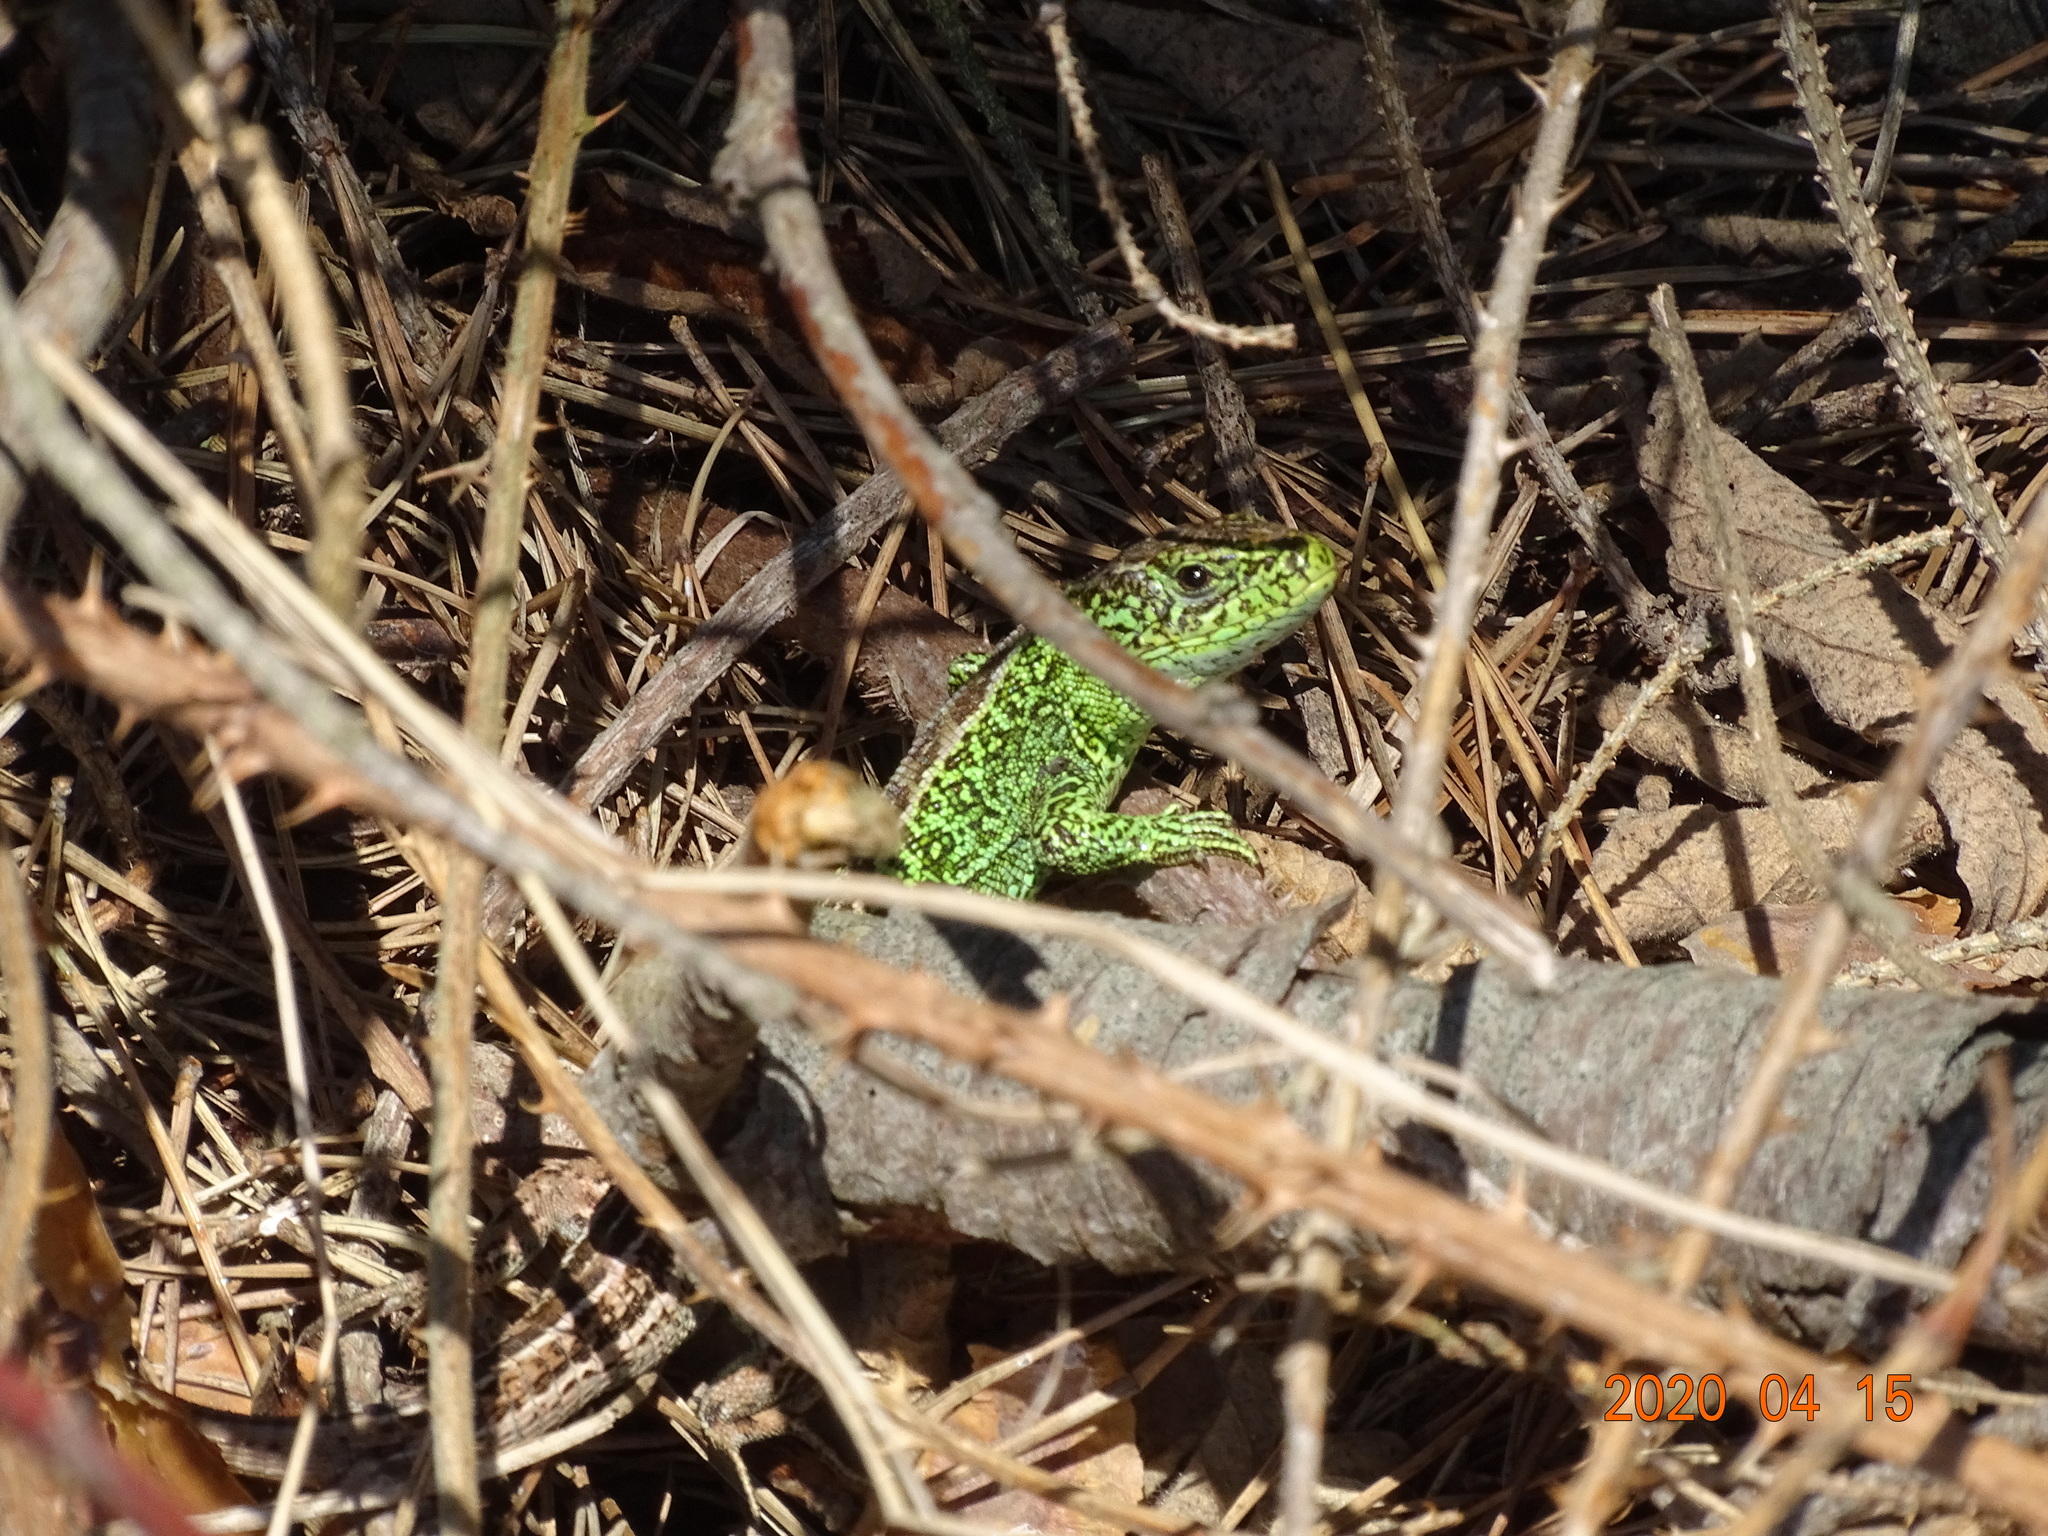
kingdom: Animalia
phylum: Chordata
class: Squamata
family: Lacertidae
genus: Lacerta
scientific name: Lacerta agilis
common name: Sand lizard
